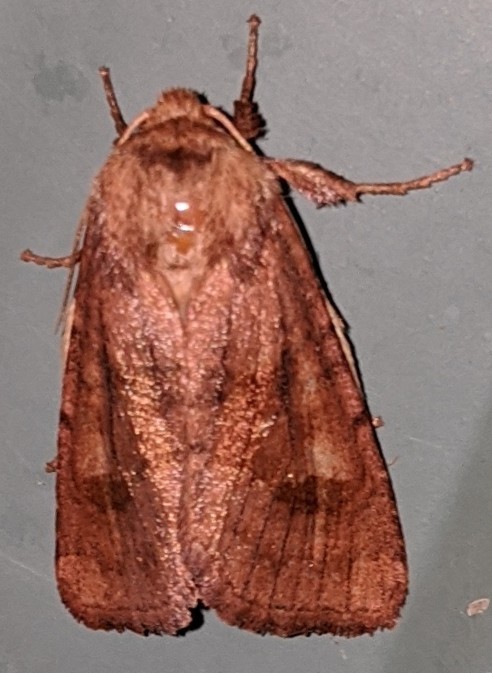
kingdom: Animalia
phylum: Arthropoda
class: Insecta
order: Lepidoptera
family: Noctuidae
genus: Nephelodes
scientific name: Nephelodes minians
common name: Bronzed cutworm
